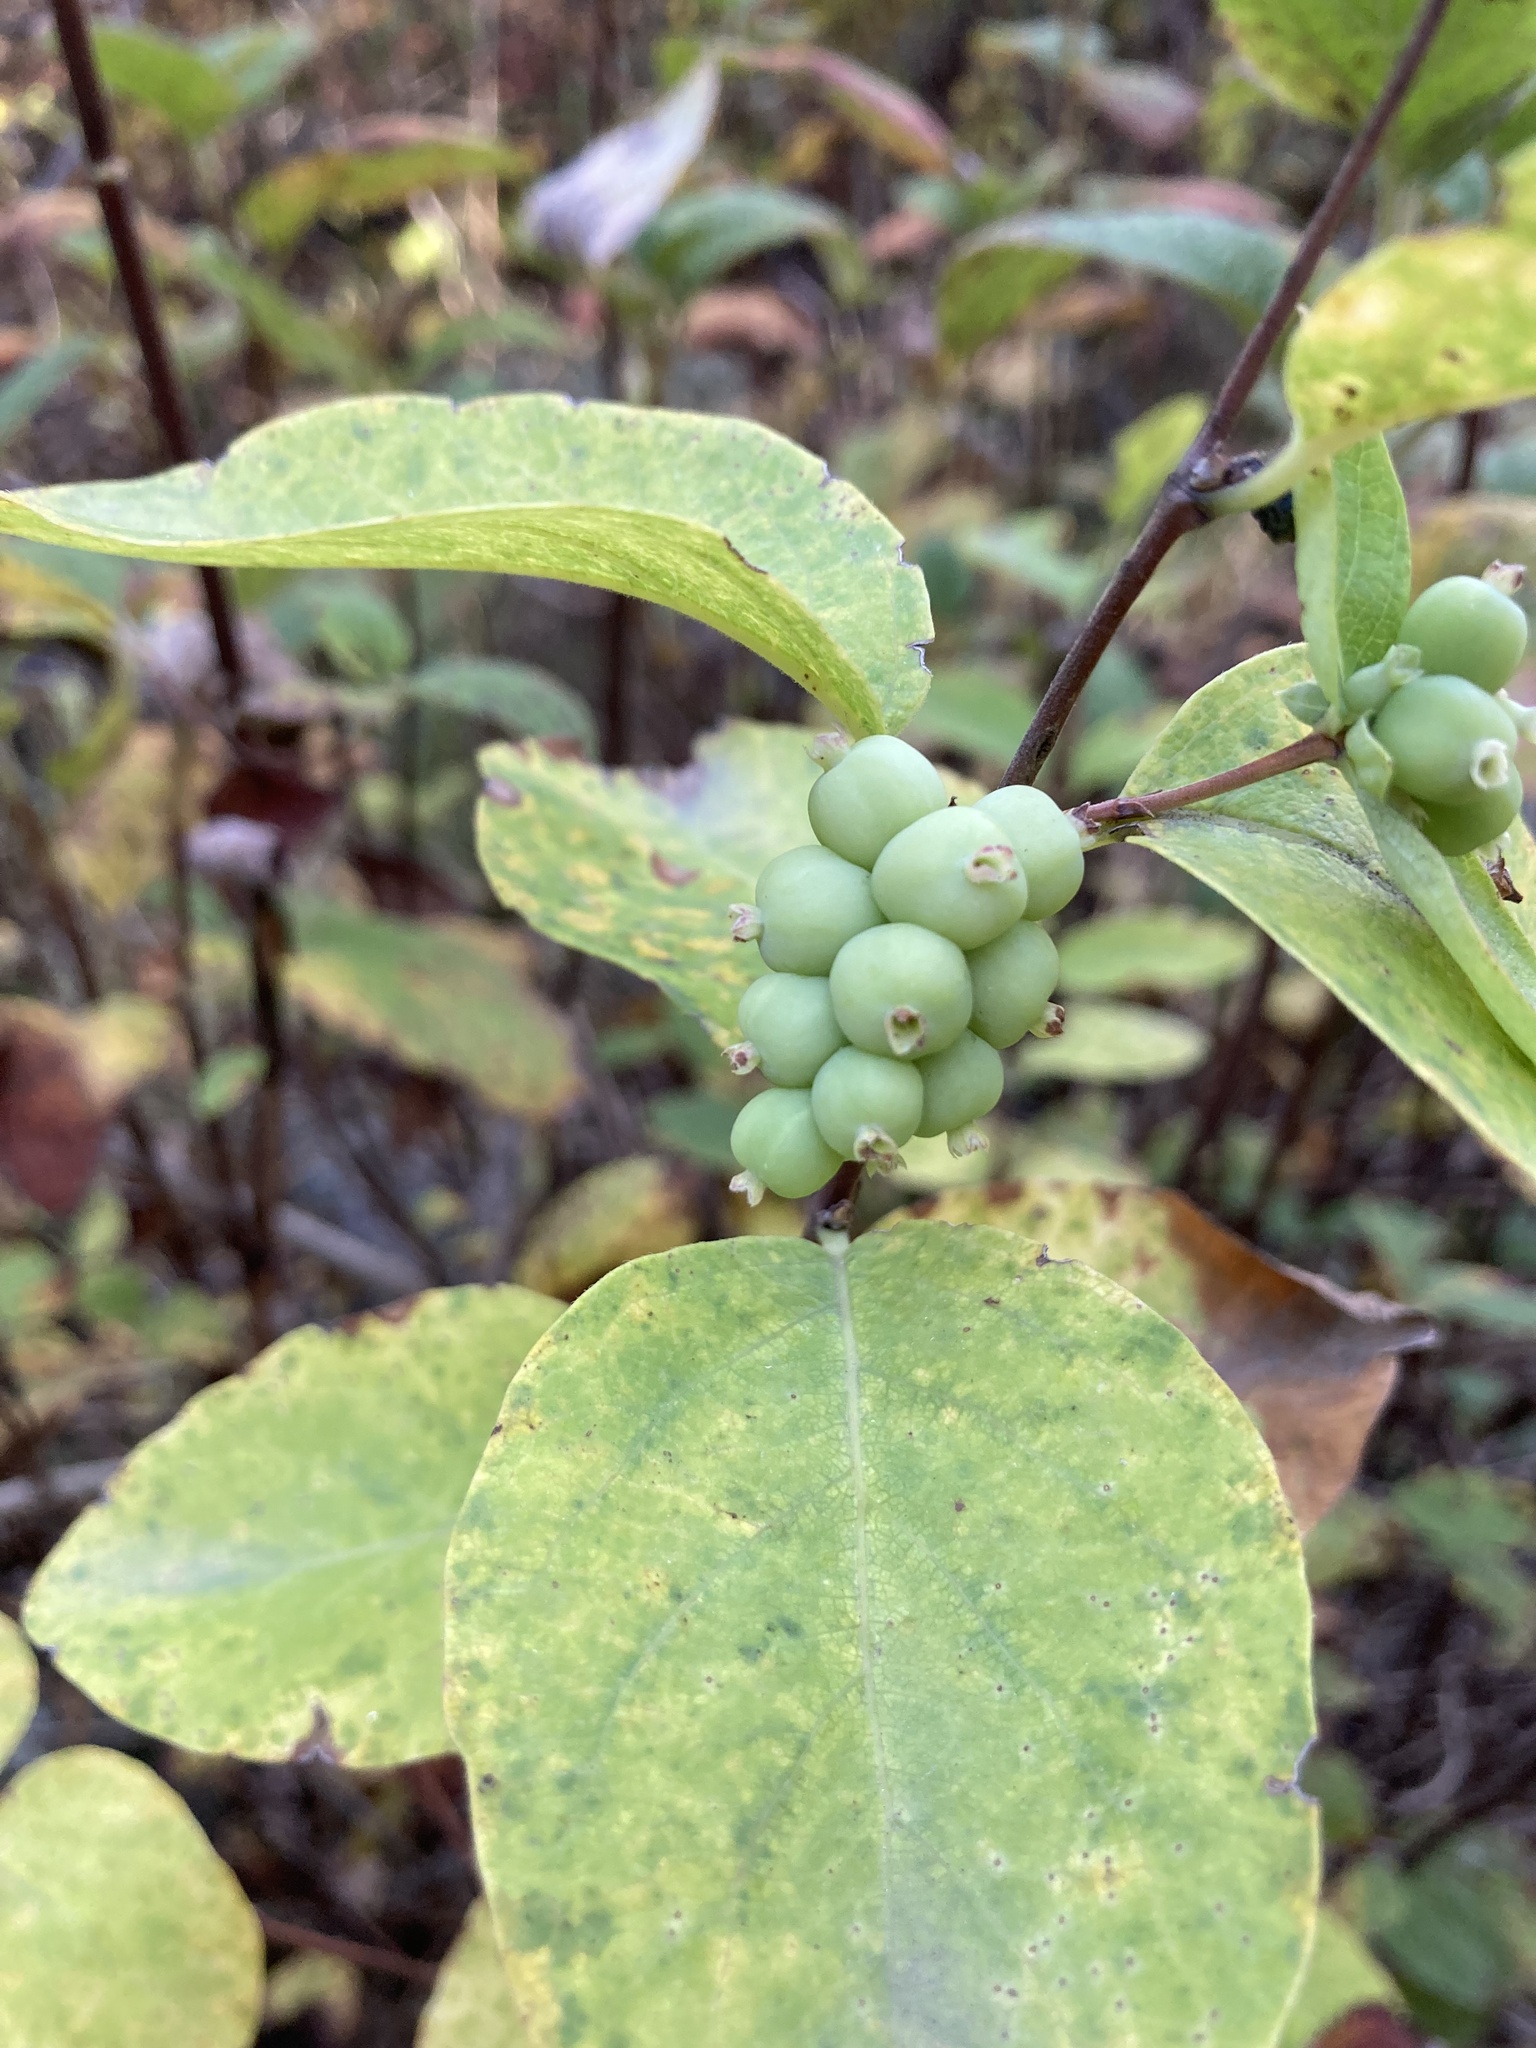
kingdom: Plantae
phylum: Tracheophyta
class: Magnoliopsida
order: Dipsacales
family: Caprifoliaceae
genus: Symphoricarpos
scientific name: Symphoricarpos occidentalis
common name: Wolfberry
